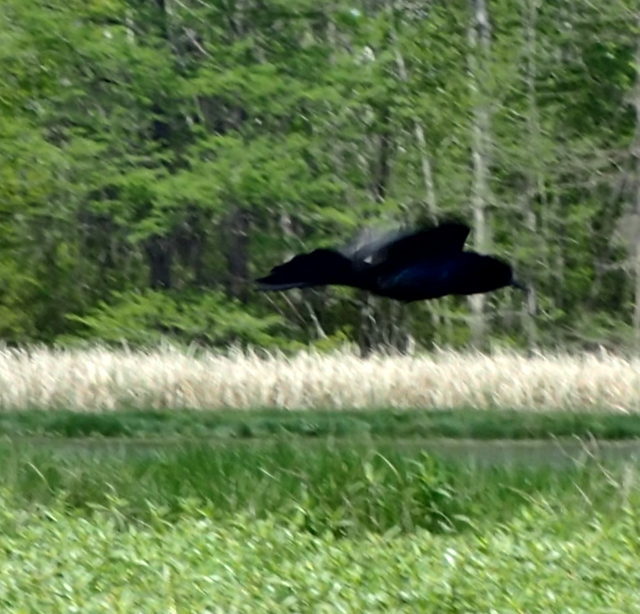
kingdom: Animalia
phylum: Chordata
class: Aves
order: Passeriformes
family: Icteridae
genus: Quiscalus
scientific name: Quiscalus major
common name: Boat-tailed grackle
